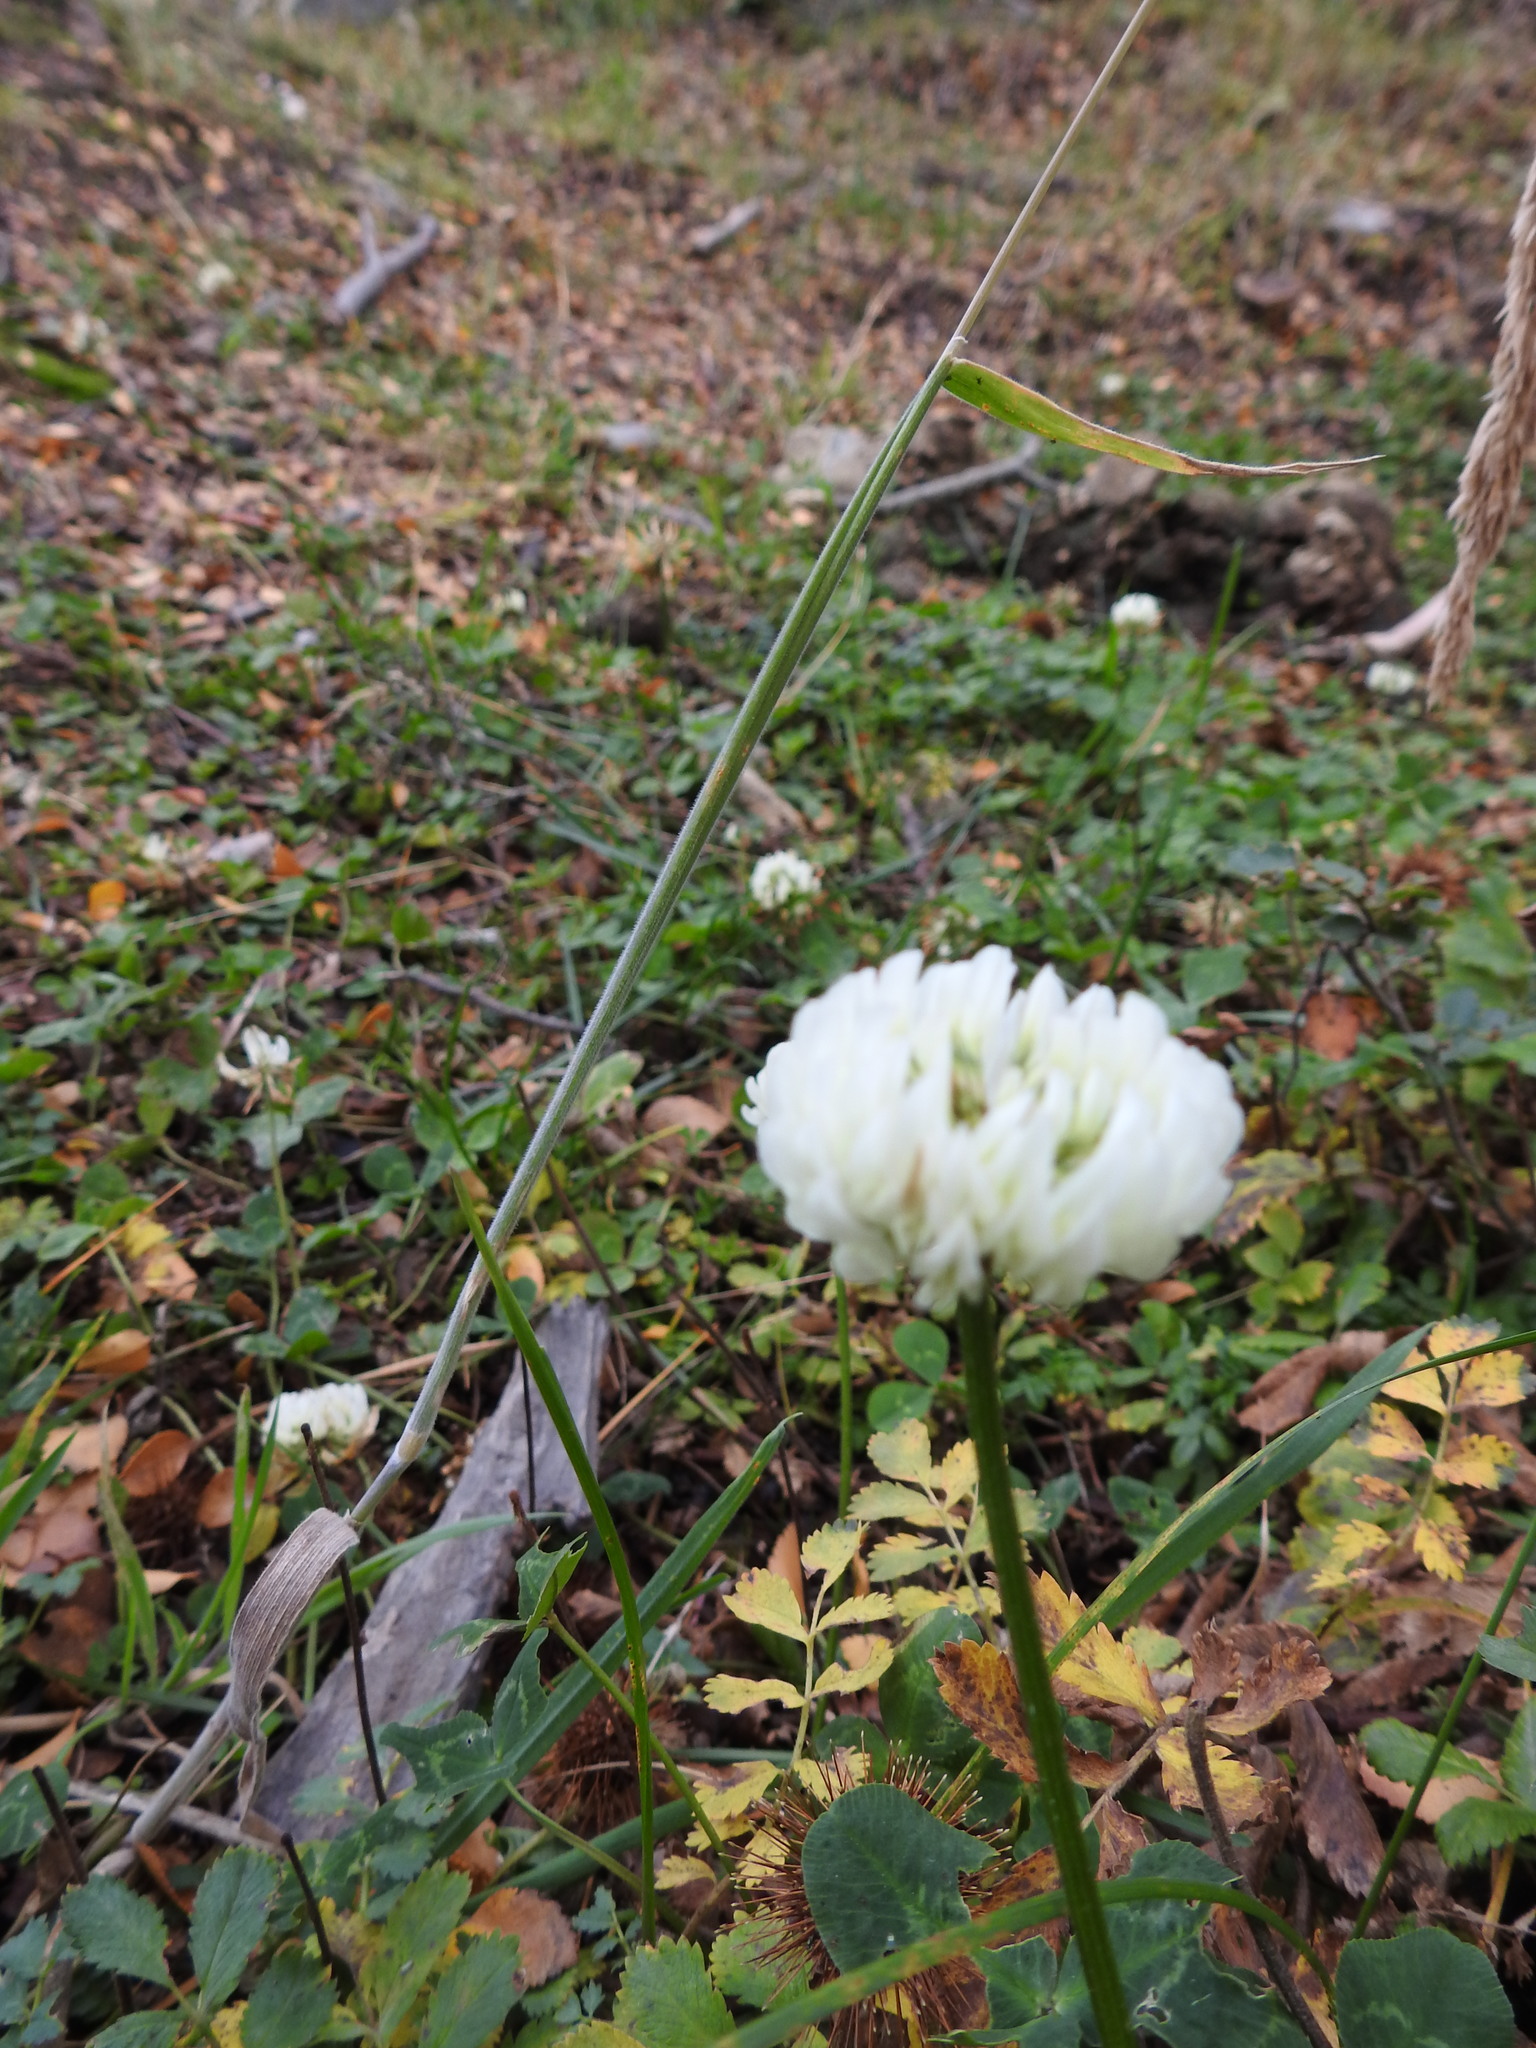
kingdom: Plantae
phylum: Tracheophyta
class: Magnoliopsida
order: Fabales
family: Fabaceae
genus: Trifolium
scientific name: Trifolium repens
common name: White clover
